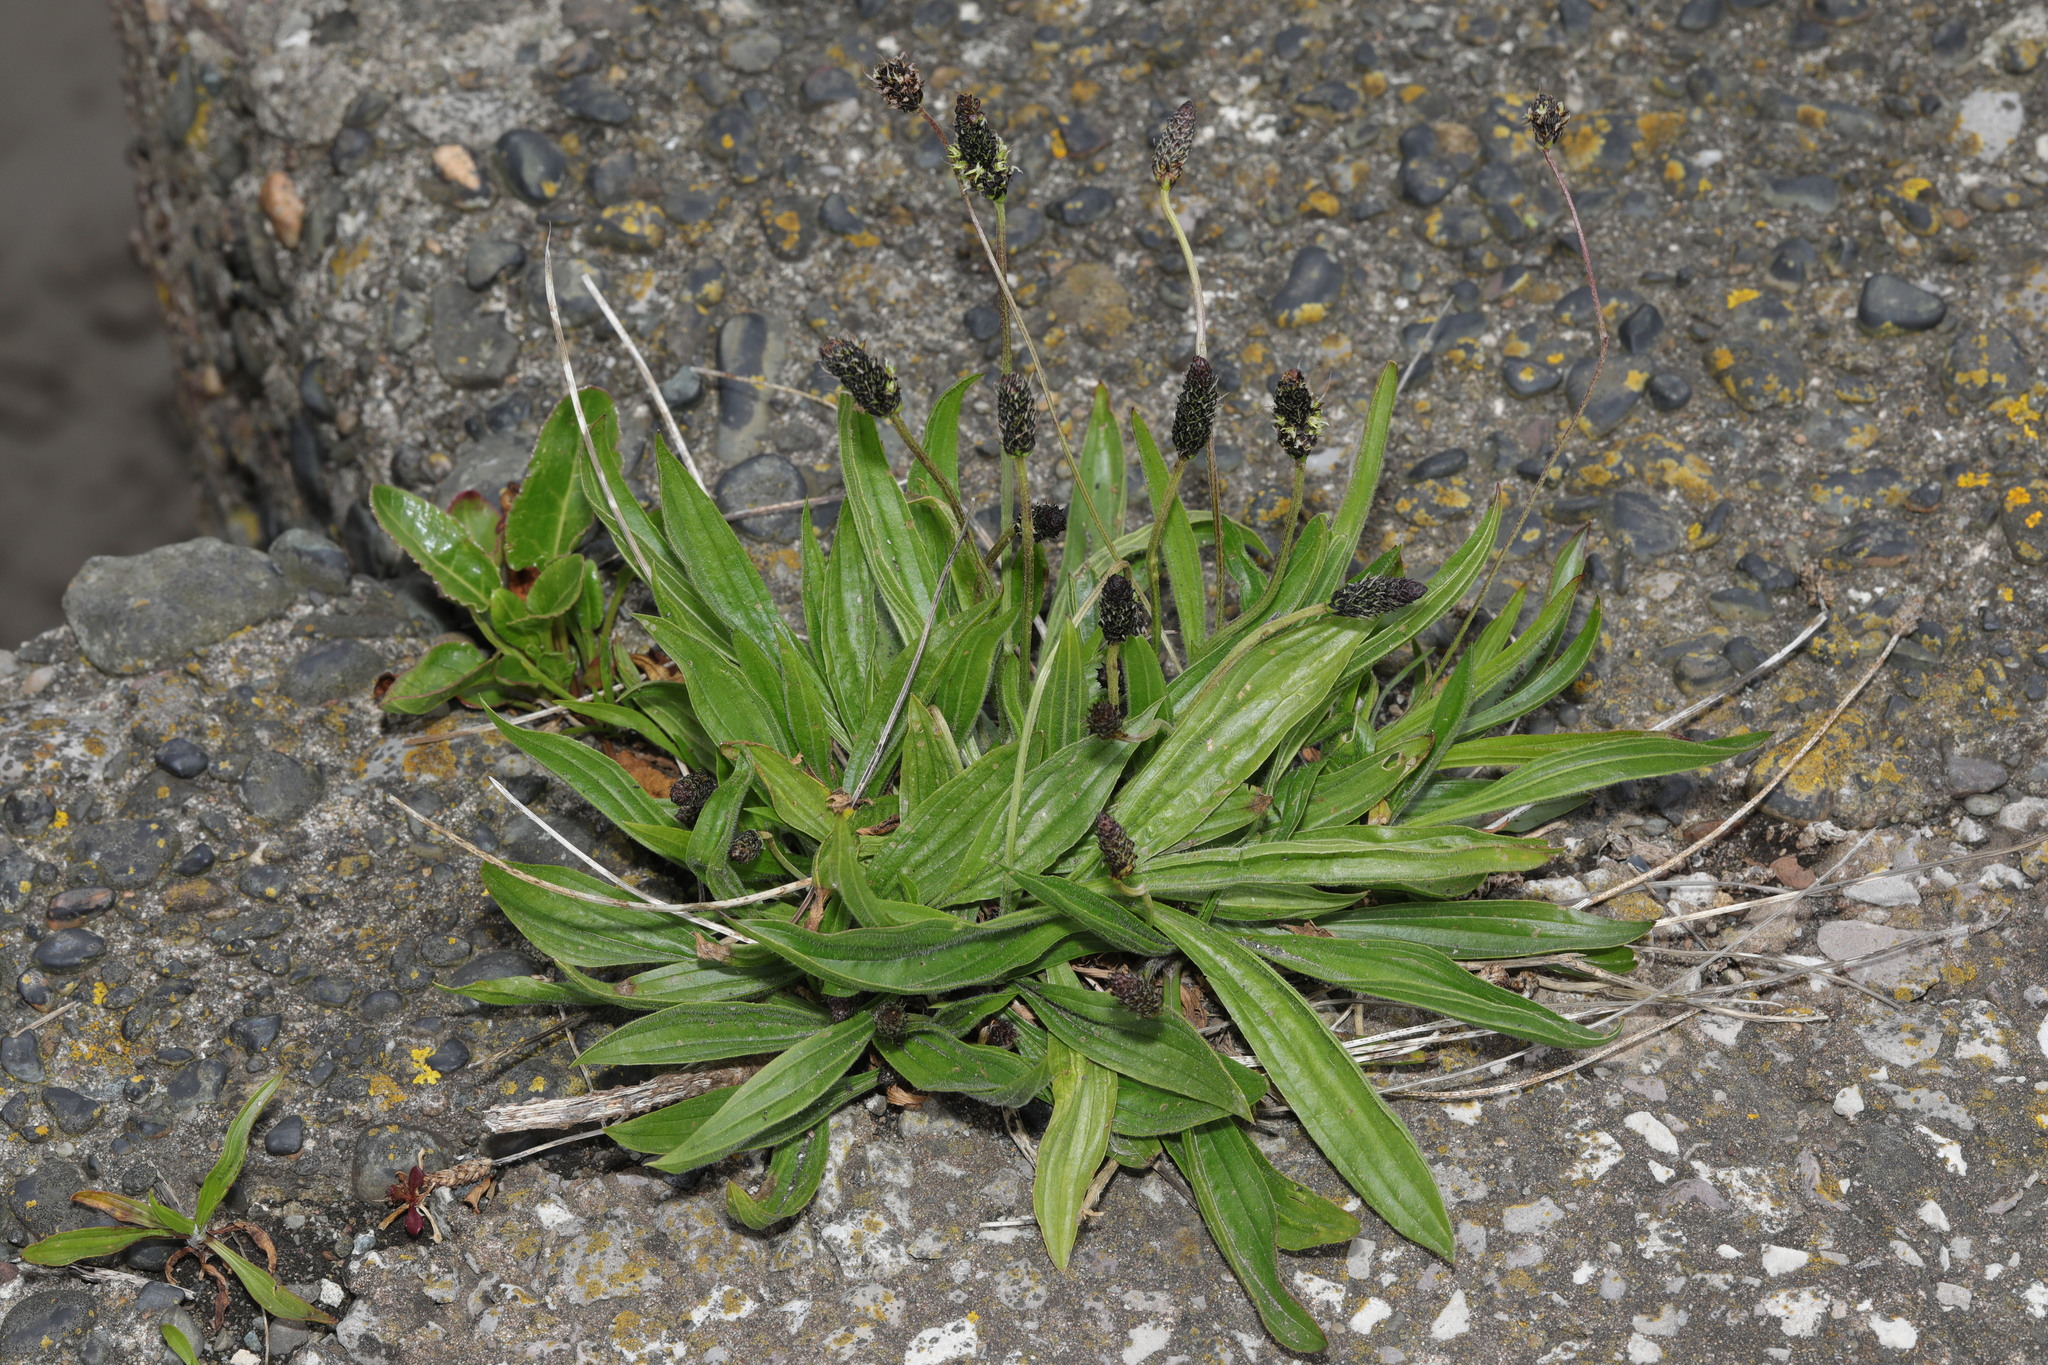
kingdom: Plantae
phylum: Tracheophyta
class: Magnoliopsida
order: Lamiales
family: Plantaginaceae
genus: Plantago
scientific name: Plantago lanceolata
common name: Ribwort plantain
